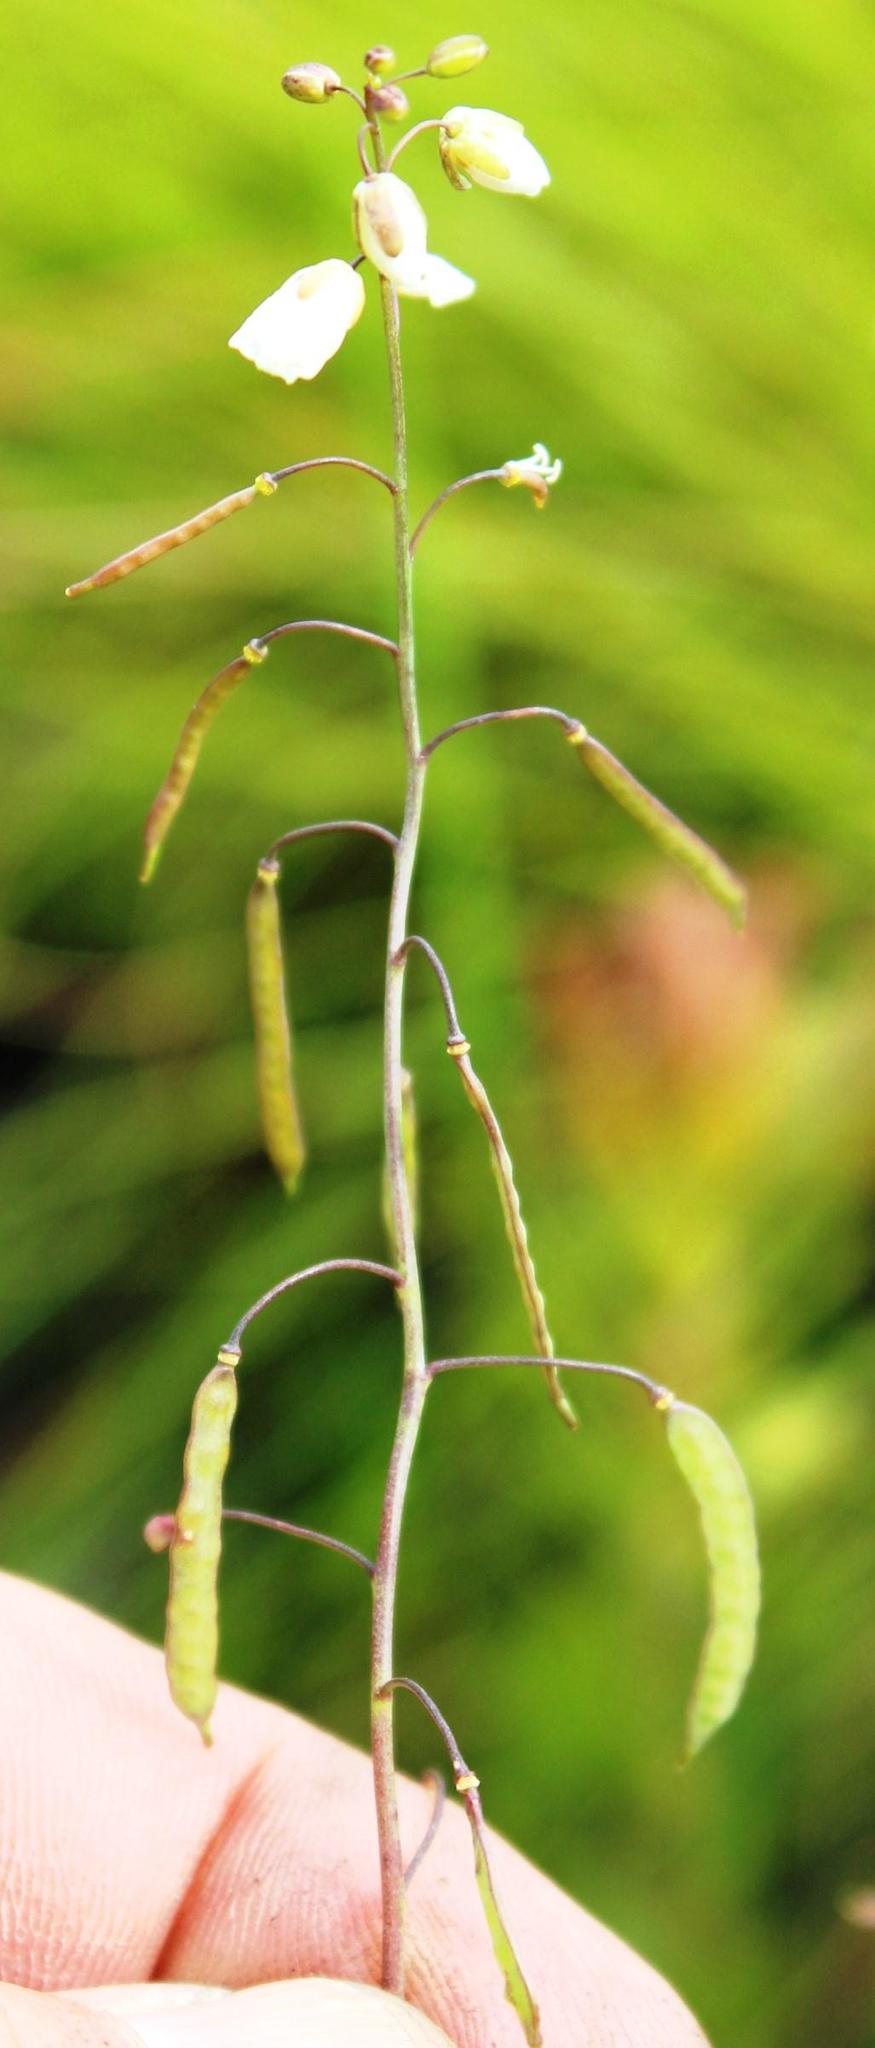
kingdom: Plantae
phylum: Tracheophyta
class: Magnoliopsida
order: Brassicales
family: Brassicaceae
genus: Heliophila
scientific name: Heliophila meyeri
